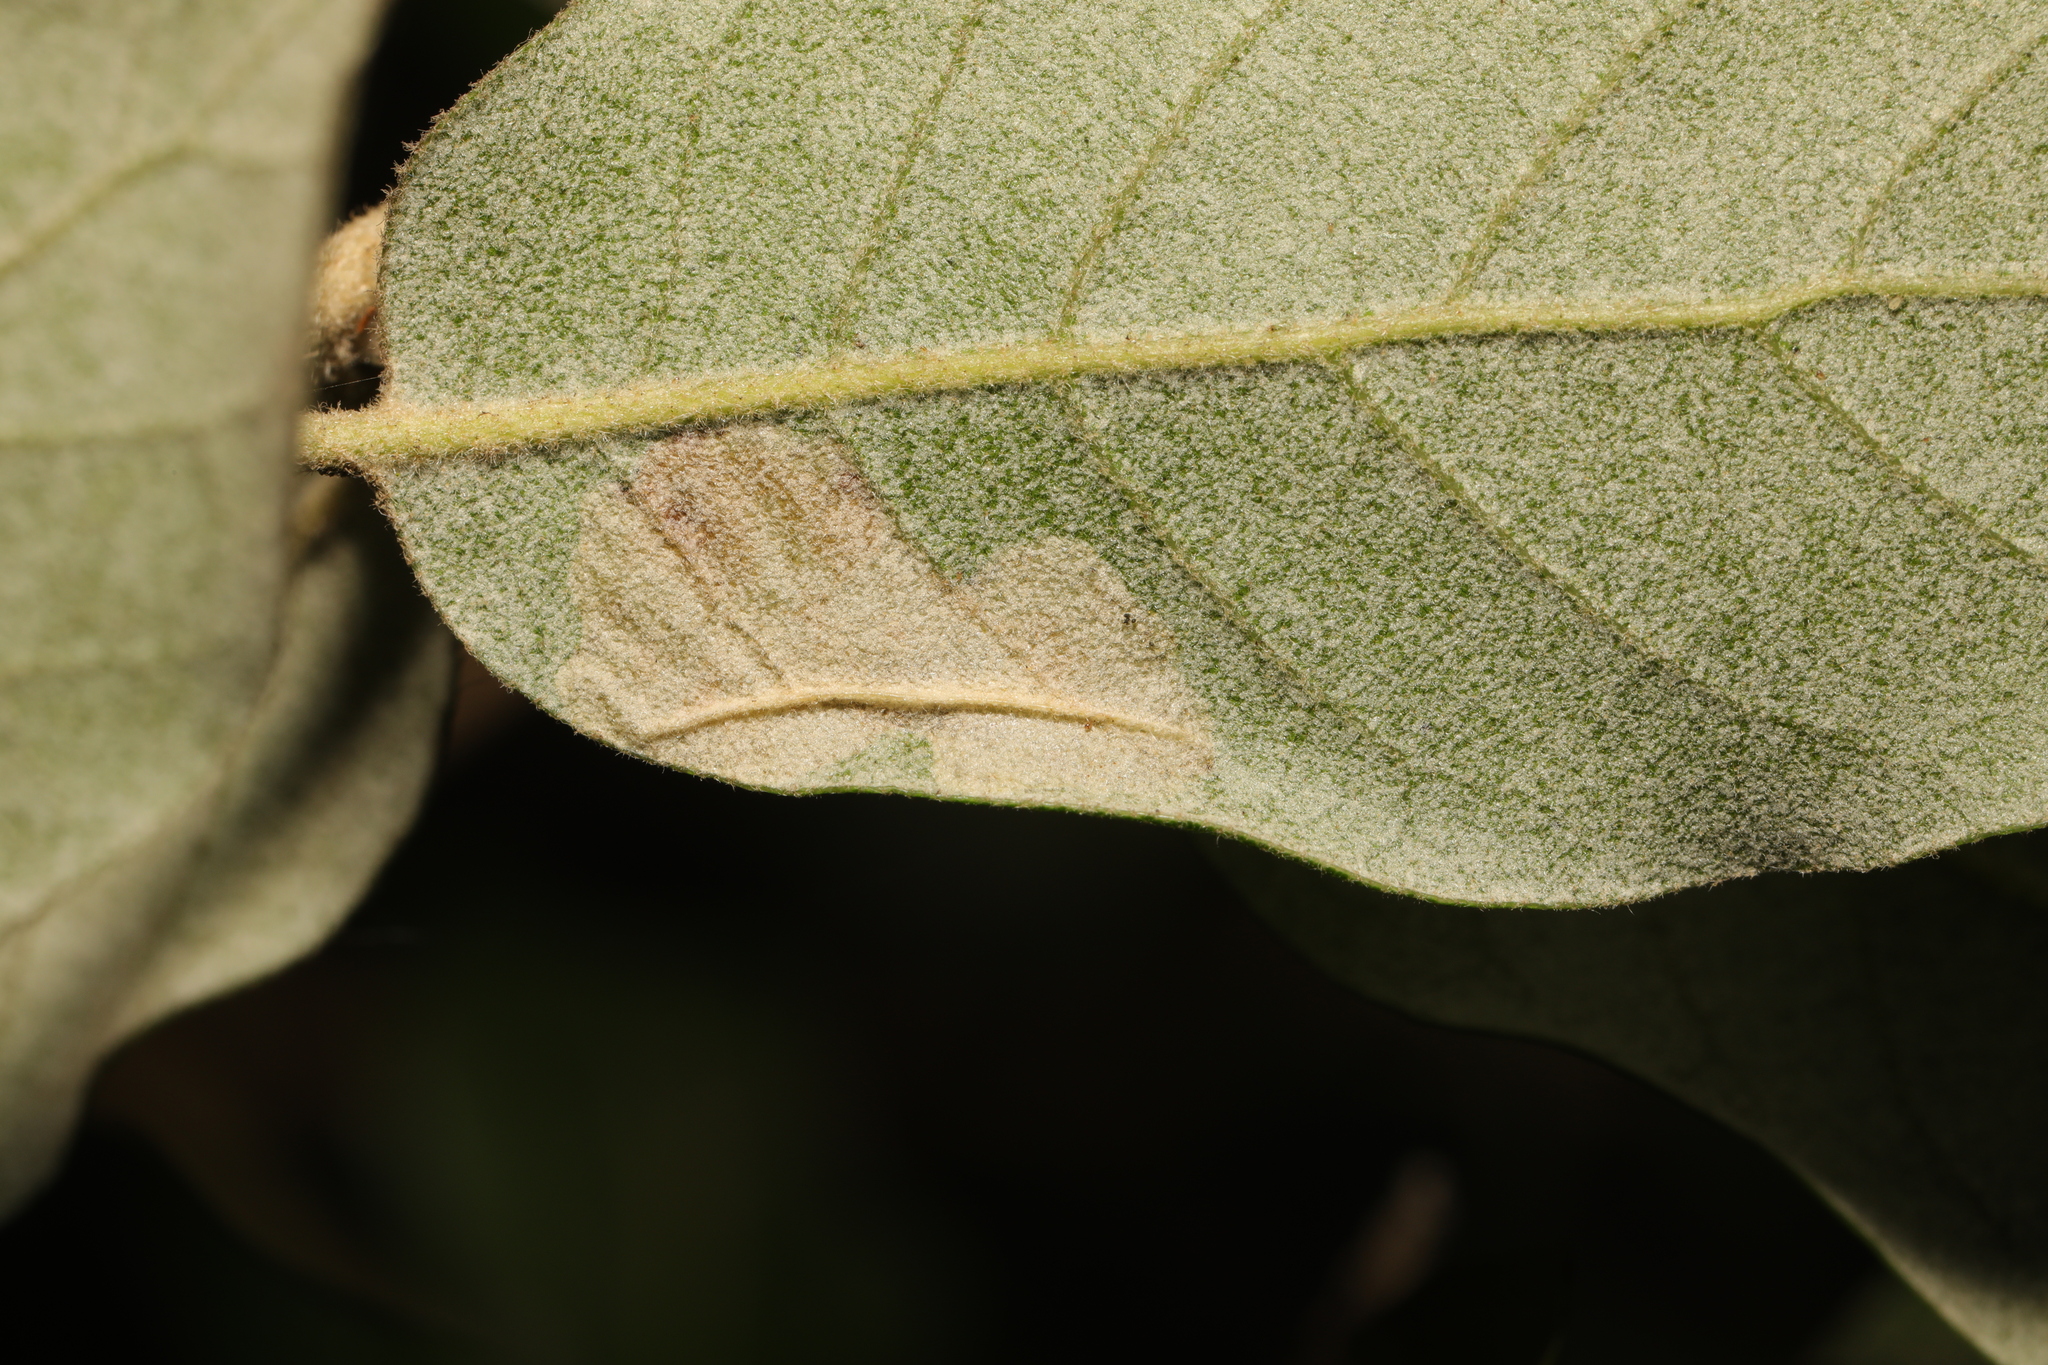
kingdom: Animalia
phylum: Arthropoda
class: Insecta
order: Lepidoptera
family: Gracillariidae
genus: Phyllonorycter
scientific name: Phyllonorycter messaniella
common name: Garden midget
